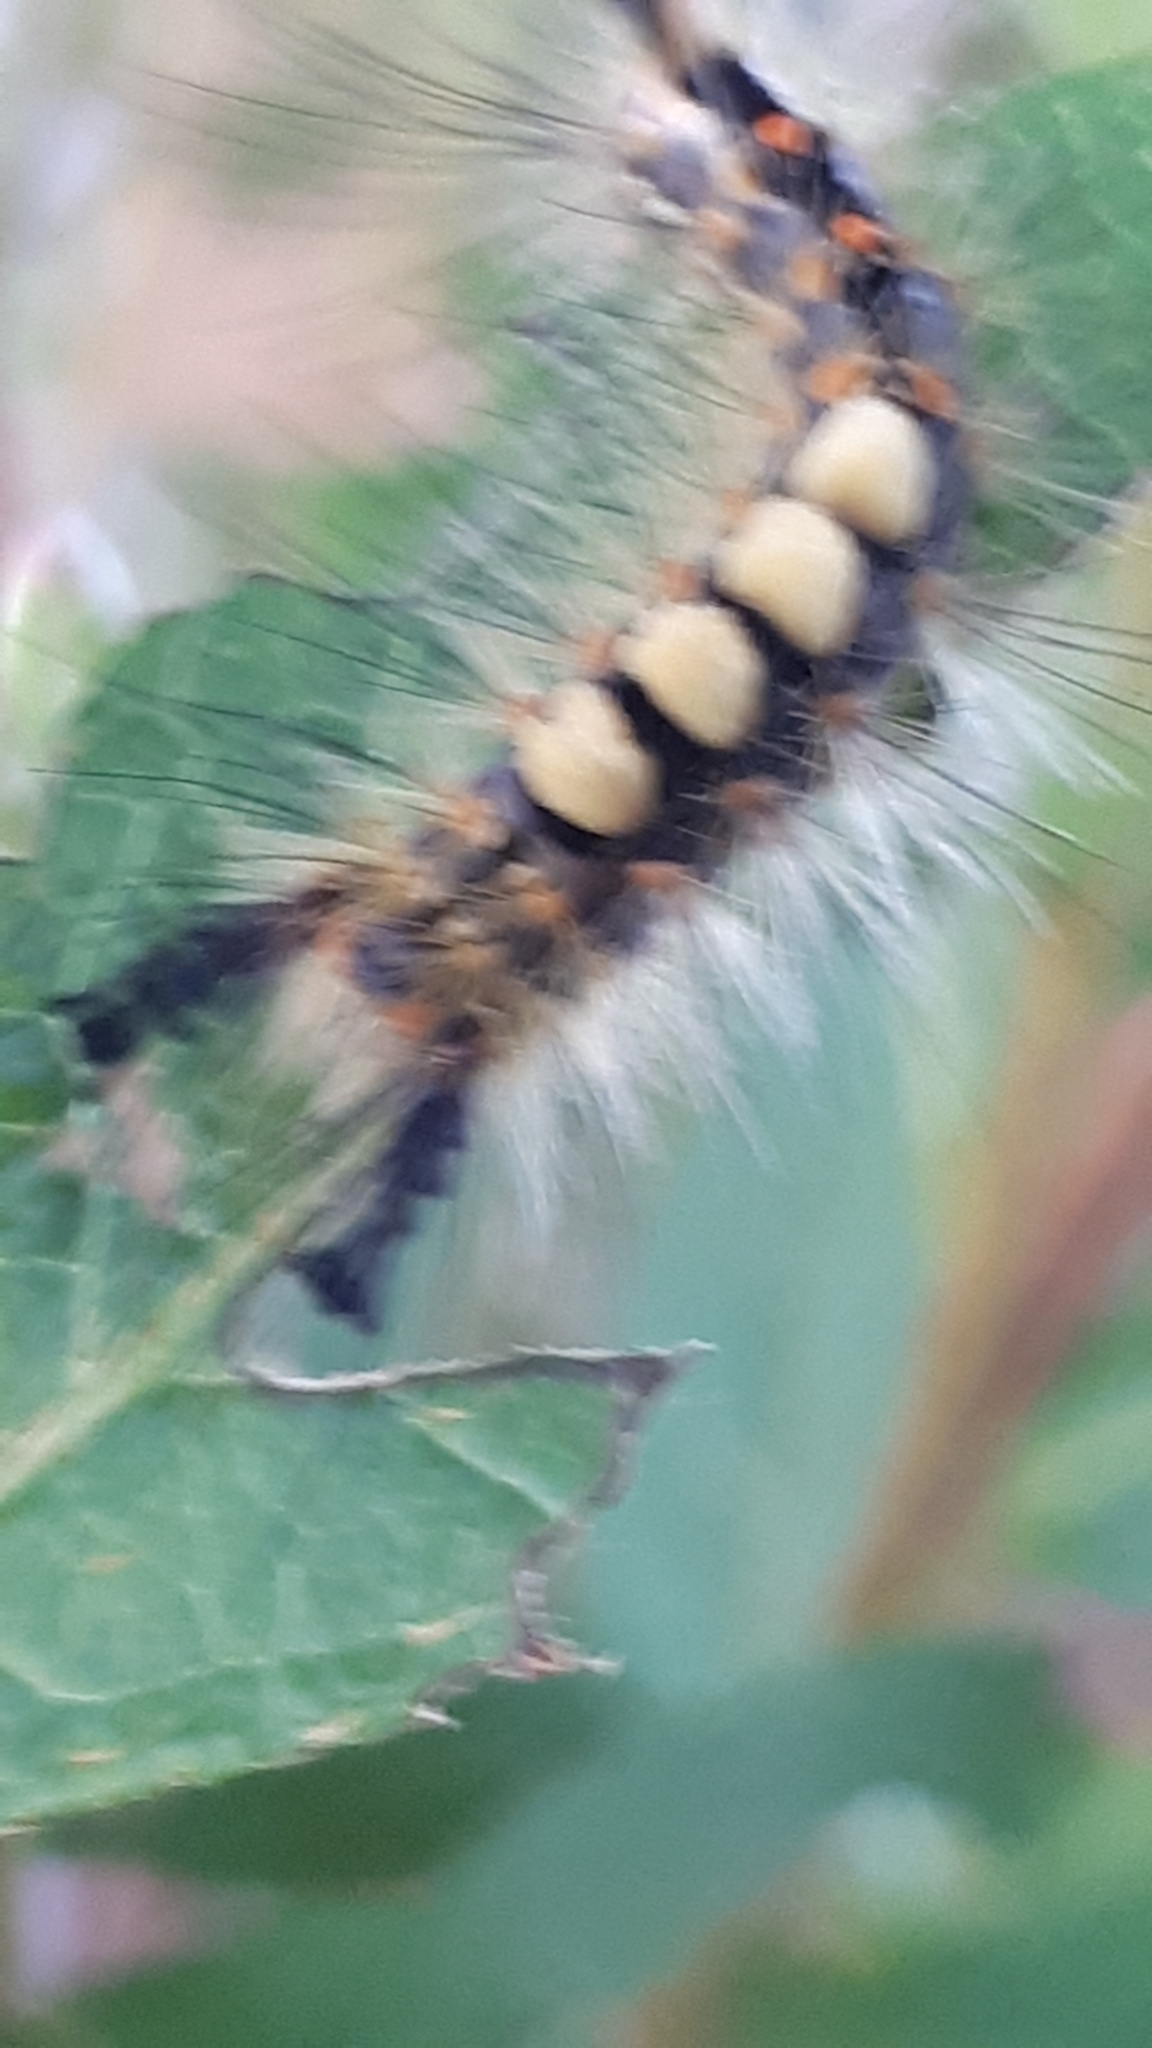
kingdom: Animalia
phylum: Arthropoda
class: Insecta
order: Lepidoptera
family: Erebidae
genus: Orgyia
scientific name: Orgyia antiqua
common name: Vapourer
